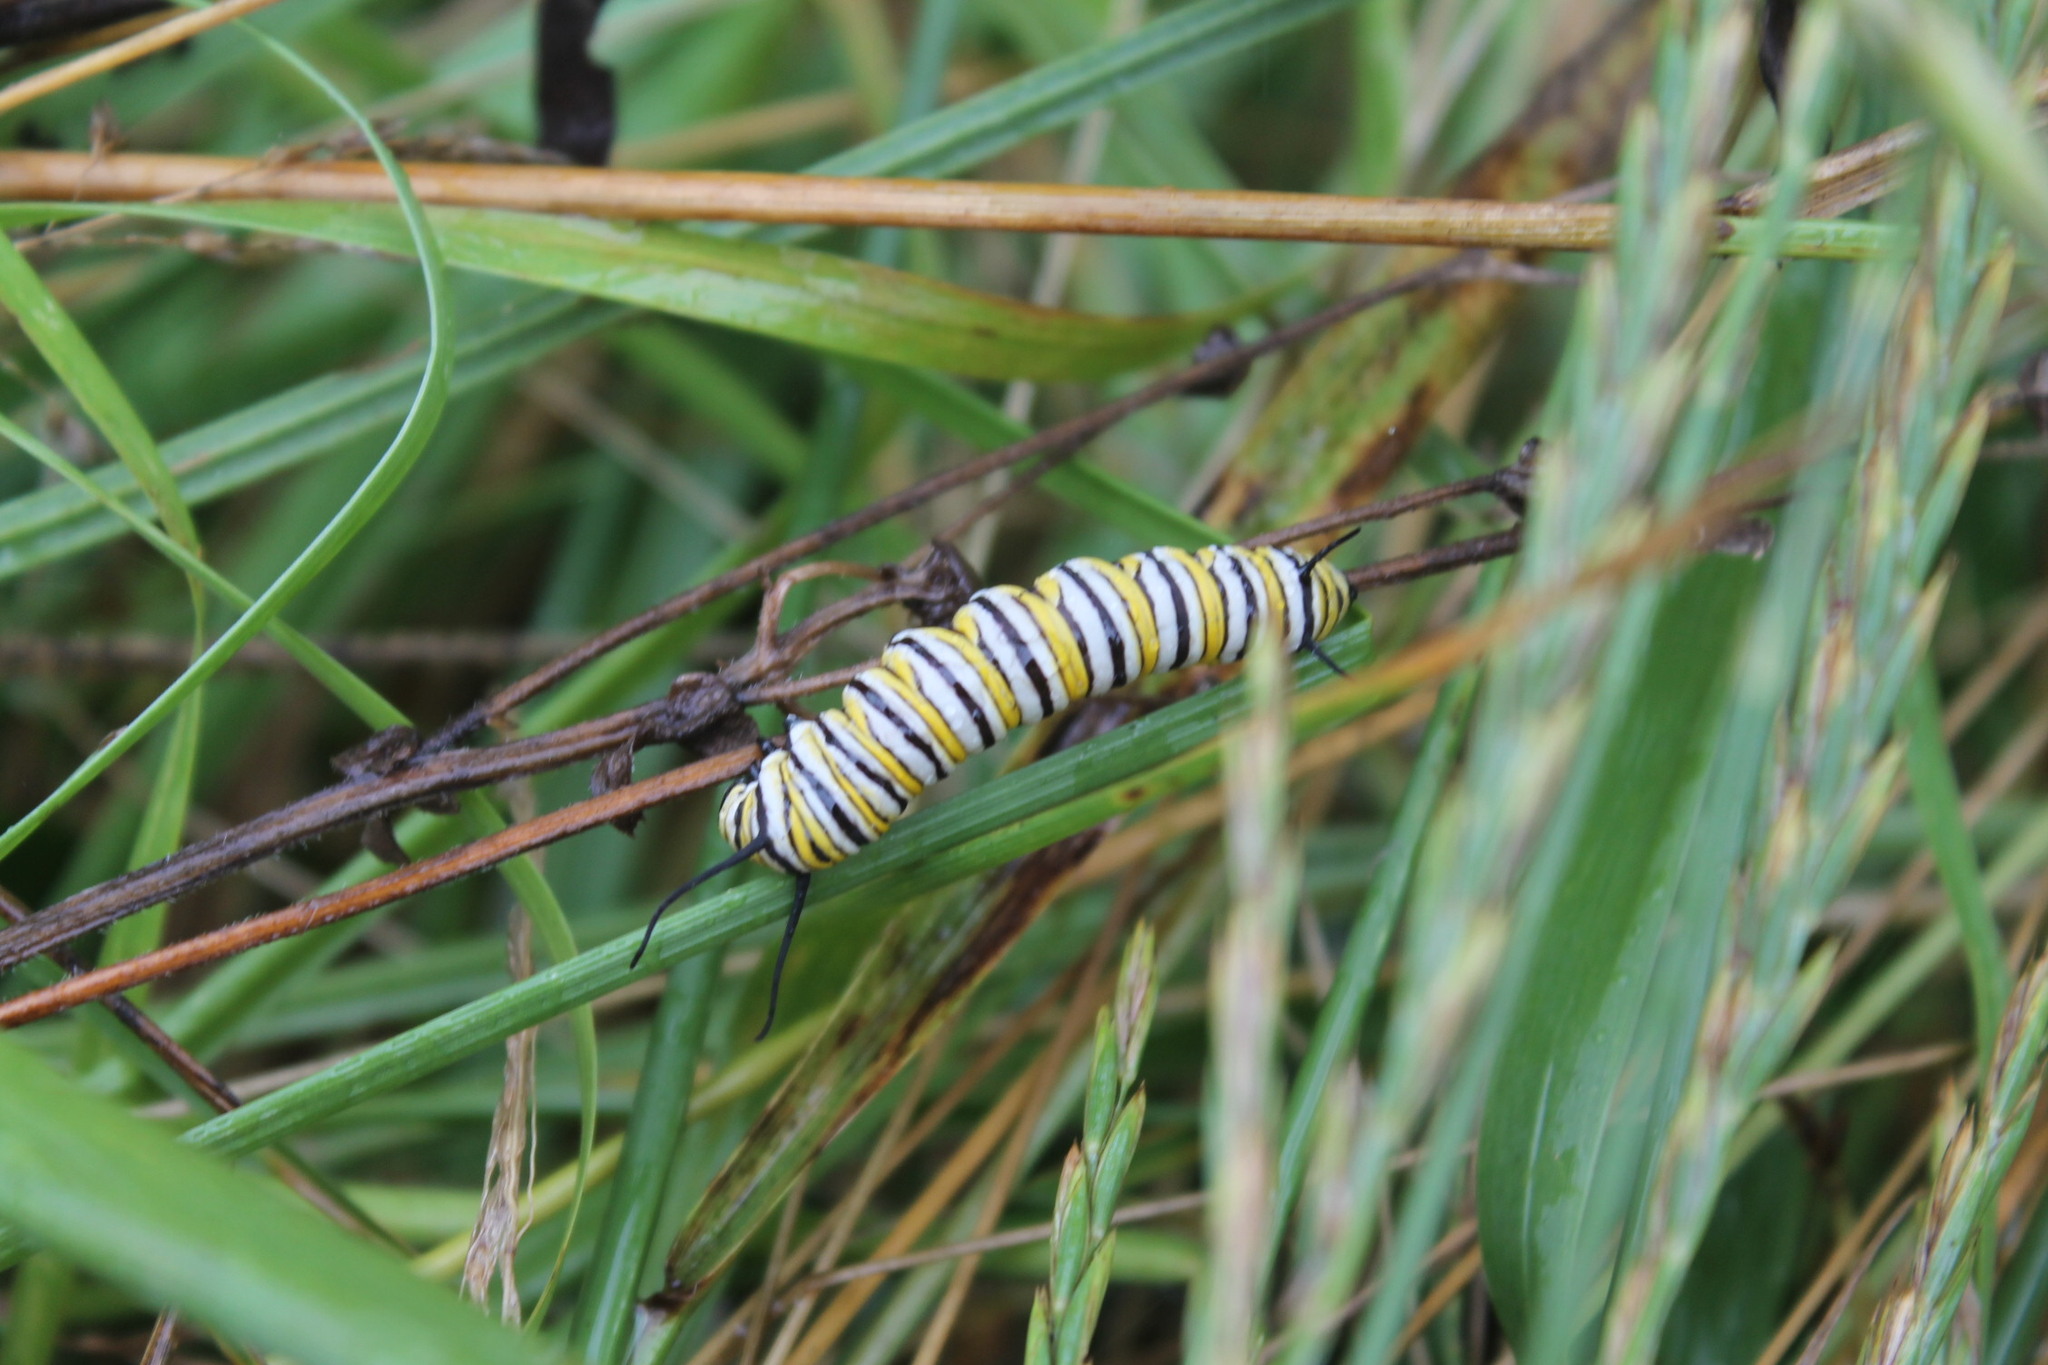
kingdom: Animalia
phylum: Arthropoda
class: Insecta
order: Lepidoptera
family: Nymphalidae
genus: Danaus
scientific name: Danaus plexippus
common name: Monarch
